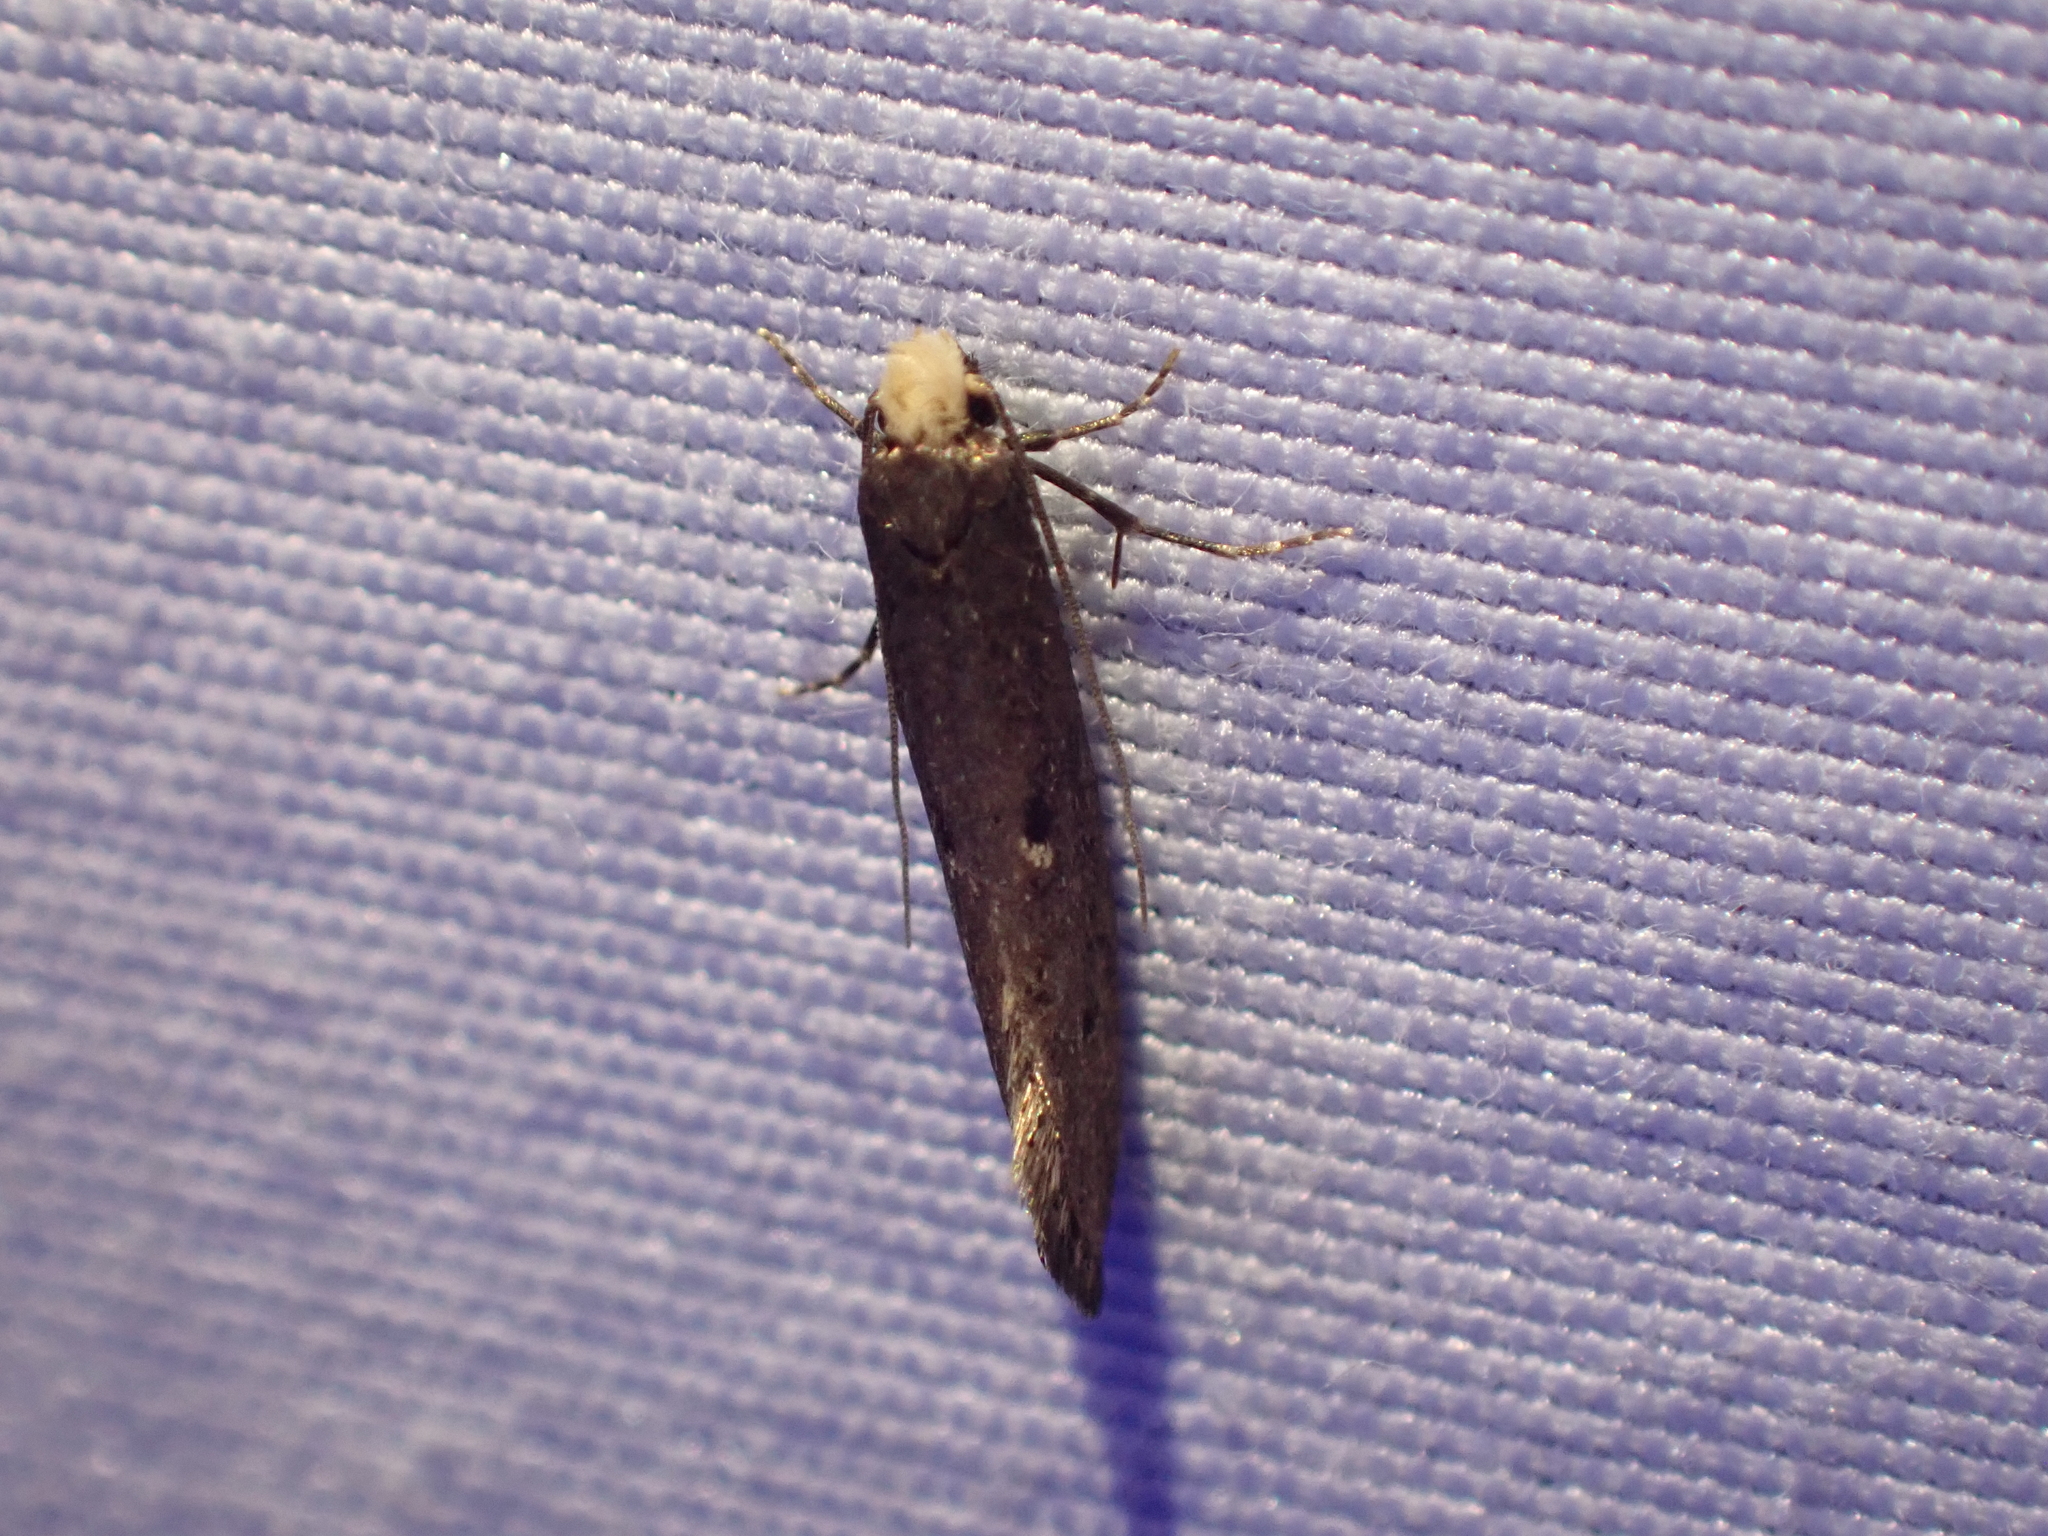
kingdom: Animalia
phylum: Arthropoda
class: Insecta
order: Lepidoptera
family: Tineidae
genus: Tinea
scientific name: Tinea niveocapitella
